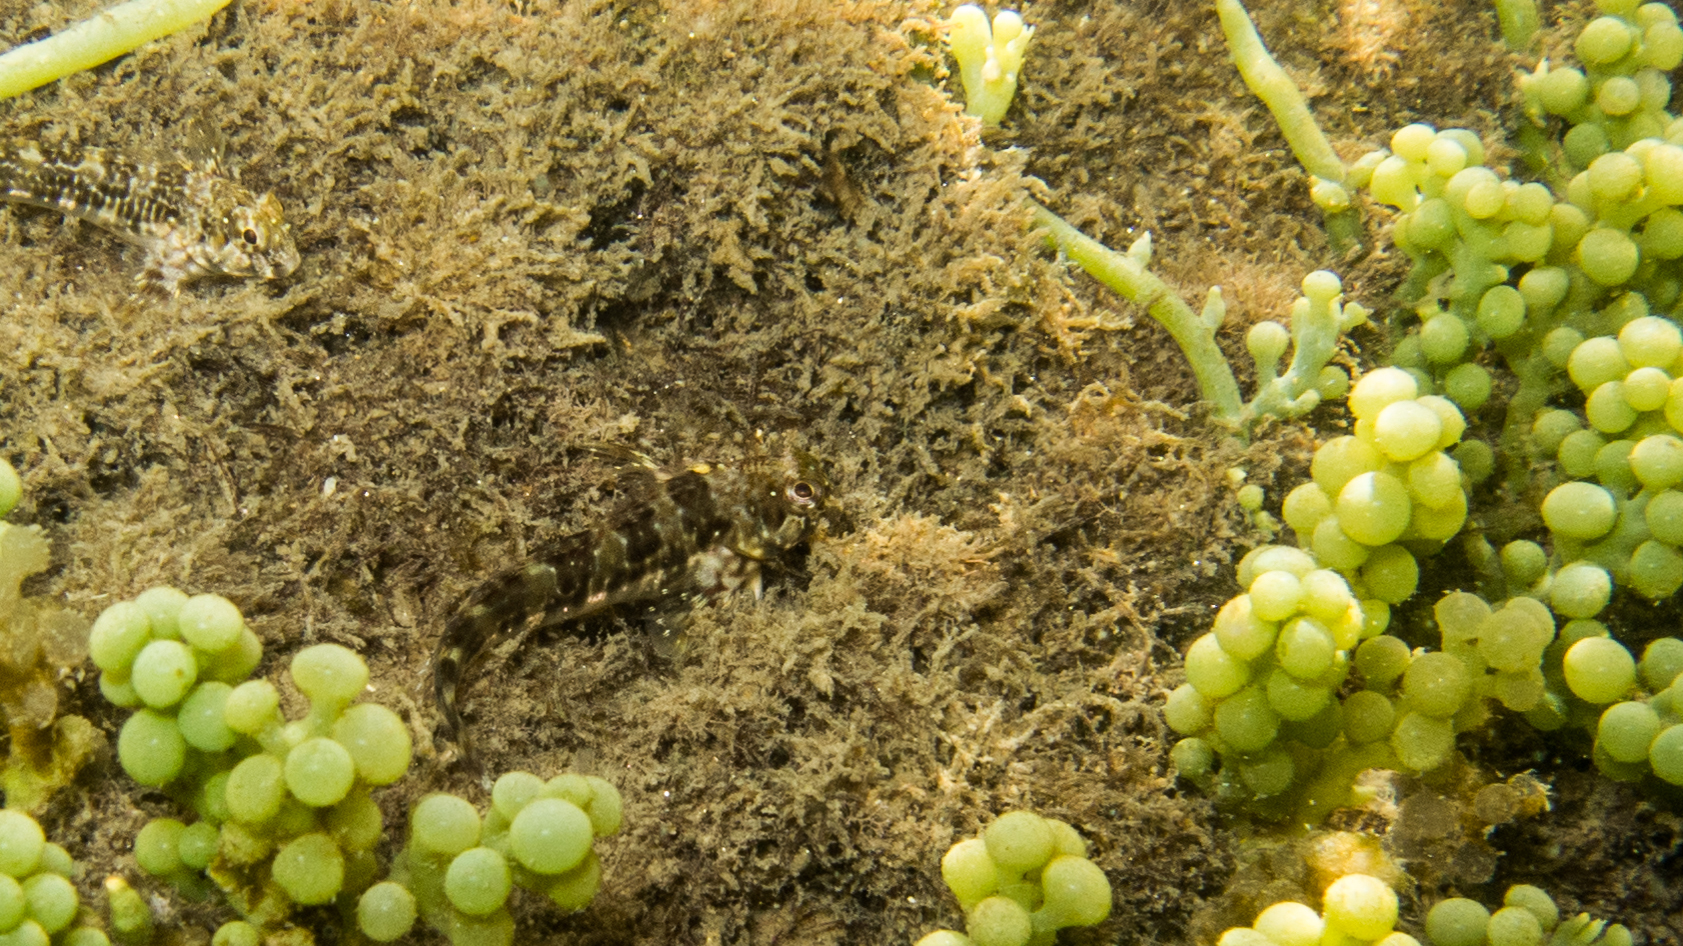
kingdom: Animalia
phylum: Chordata
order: Perciformes
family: Blenniidae
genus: Scartella
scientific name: Scartella cristata
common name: Molly miller
